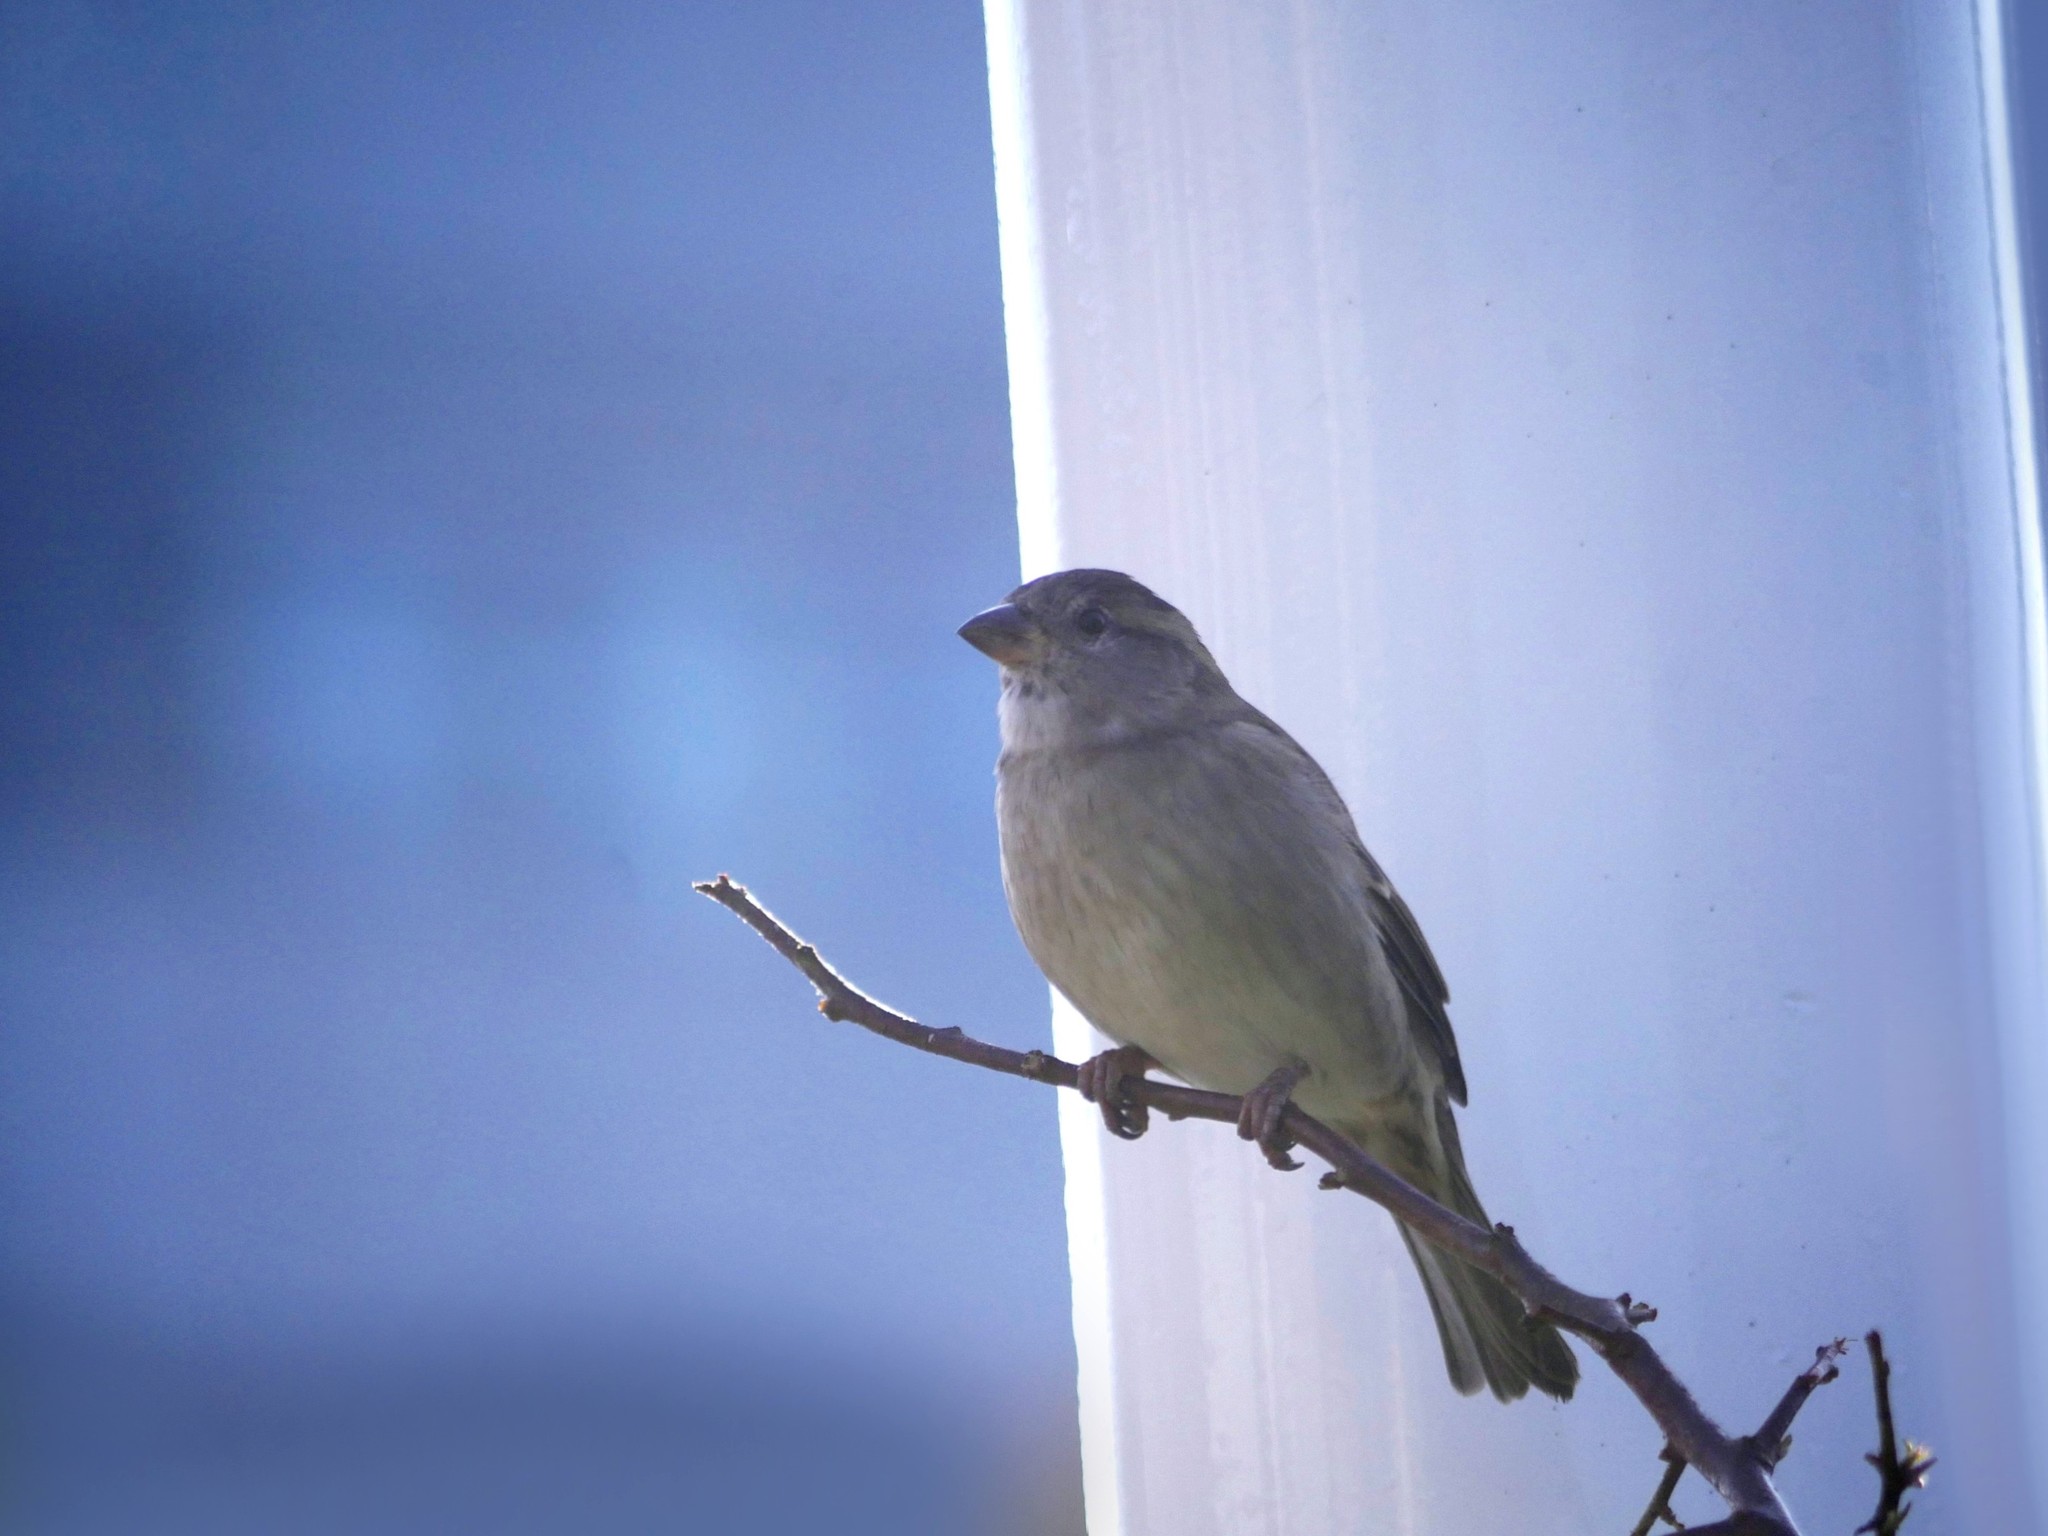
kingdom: Animalia
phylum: Chordata
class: Aves
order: Passeriformes
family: Passeridae
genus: Passer
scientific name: Passer domesticus
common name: House sparrow
